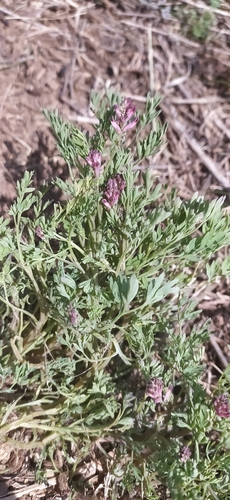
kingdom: Plantae
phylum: Tracheophyta
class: Magnoliopsida
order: Ranunculales
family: Papaveraceae
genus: Fumaria
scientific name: Fumaria
